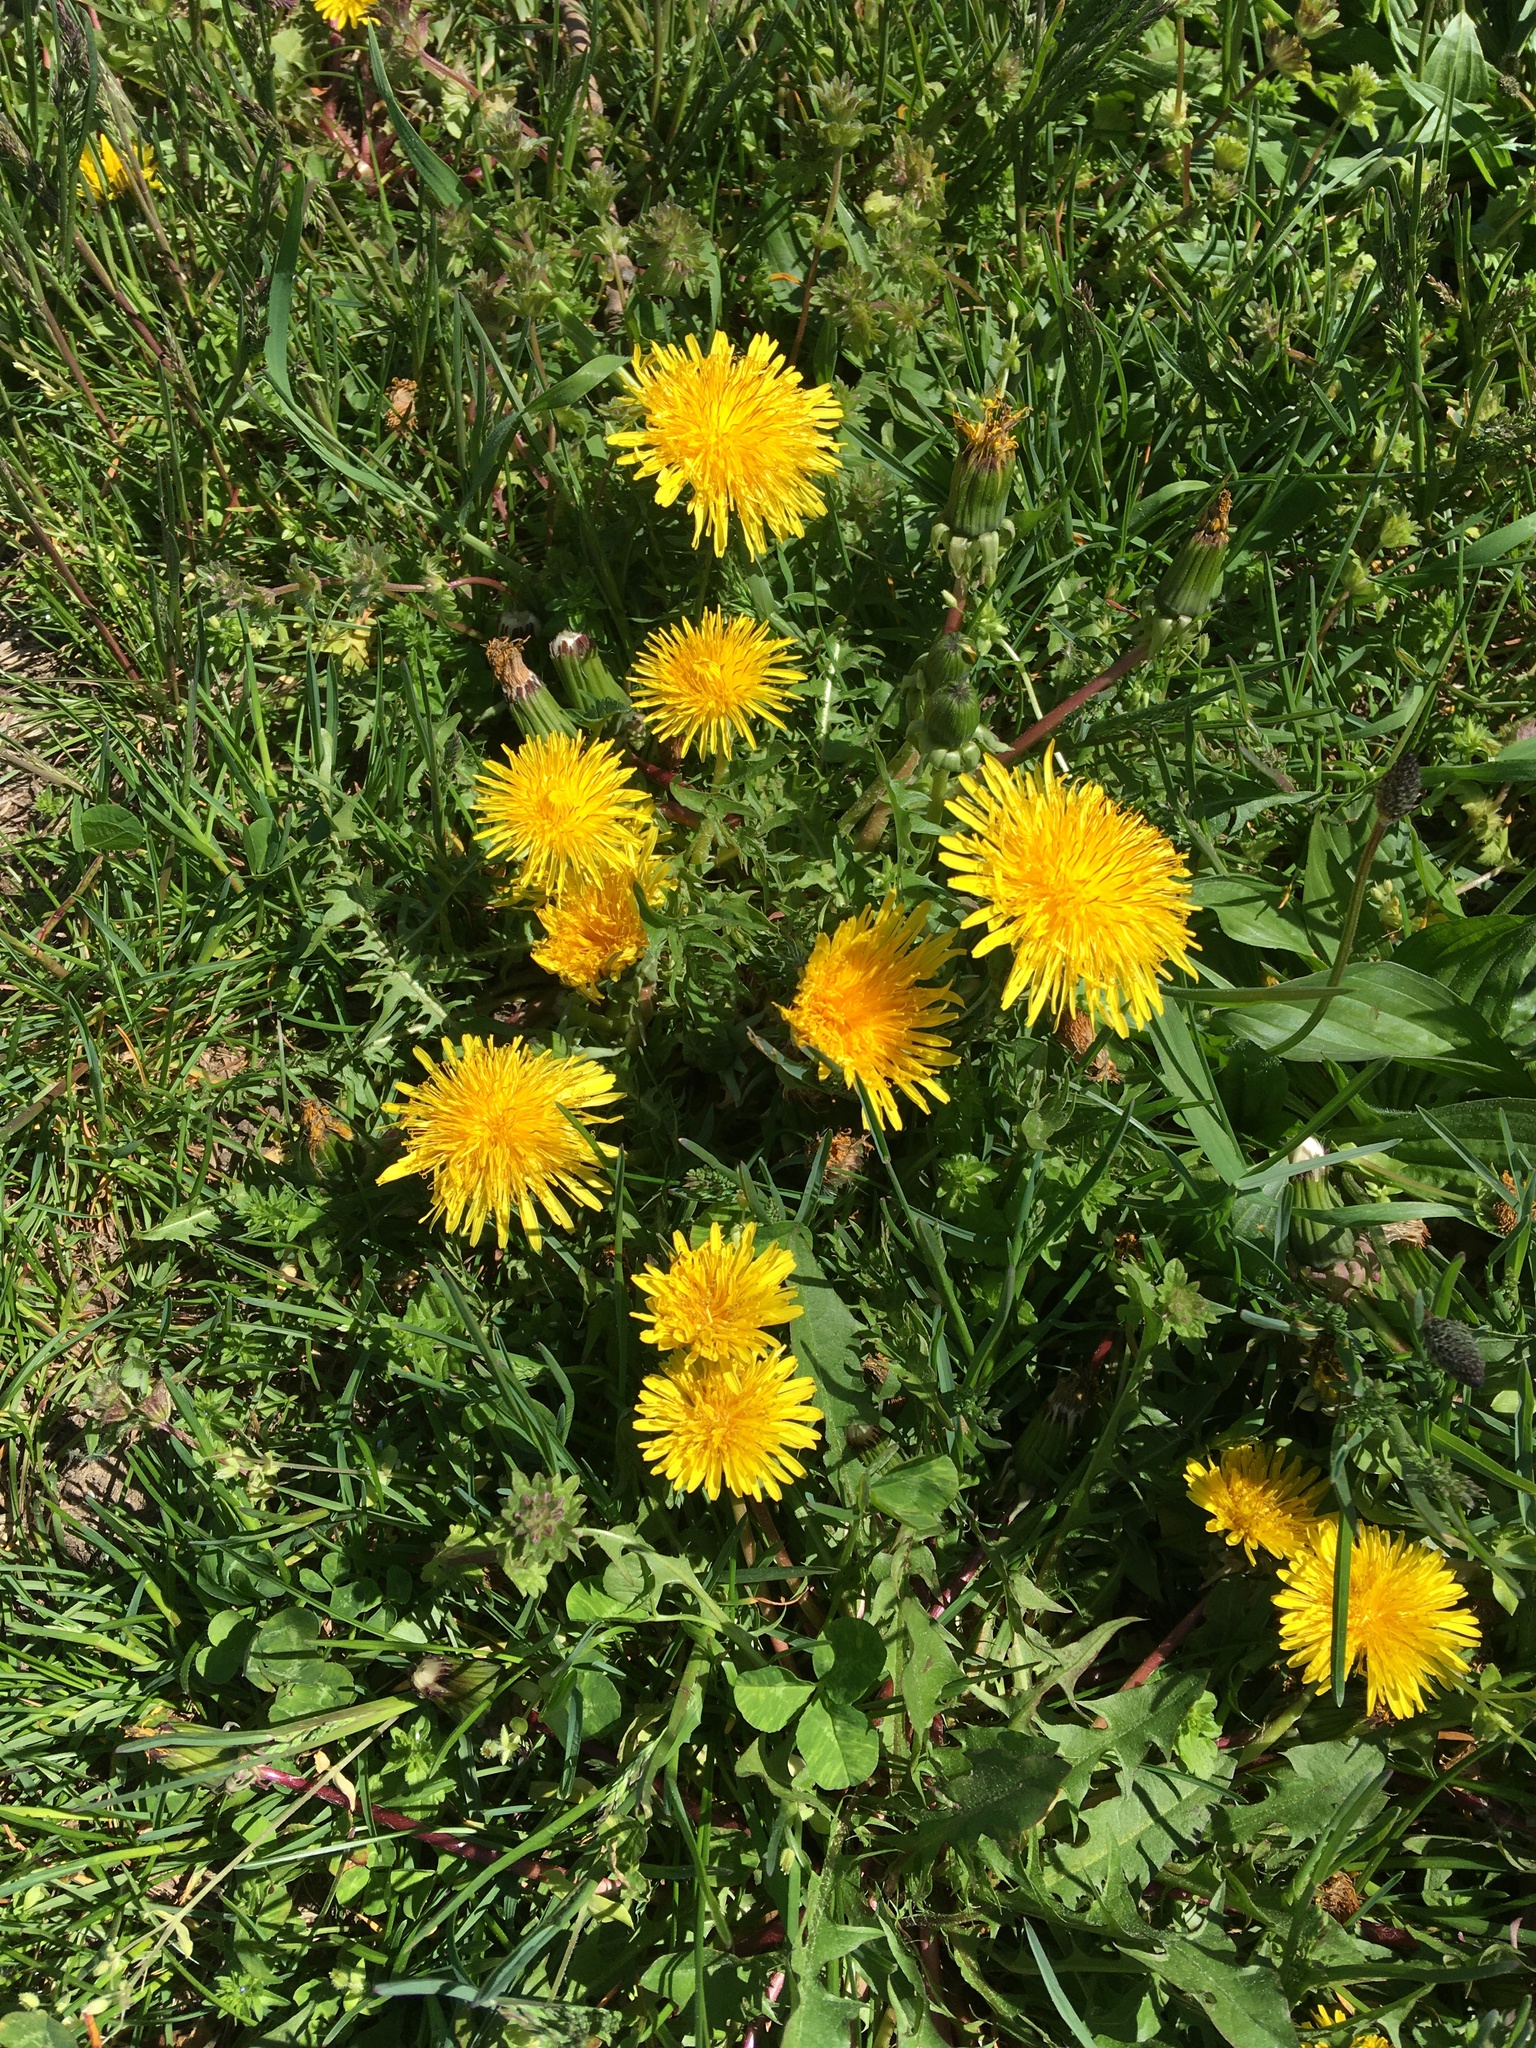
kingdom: Plantae
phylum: Tracheophyta
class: Magnoliopsida
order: Asterales
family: Asteraceae
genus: Taraxacum
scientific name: Taraxacum
